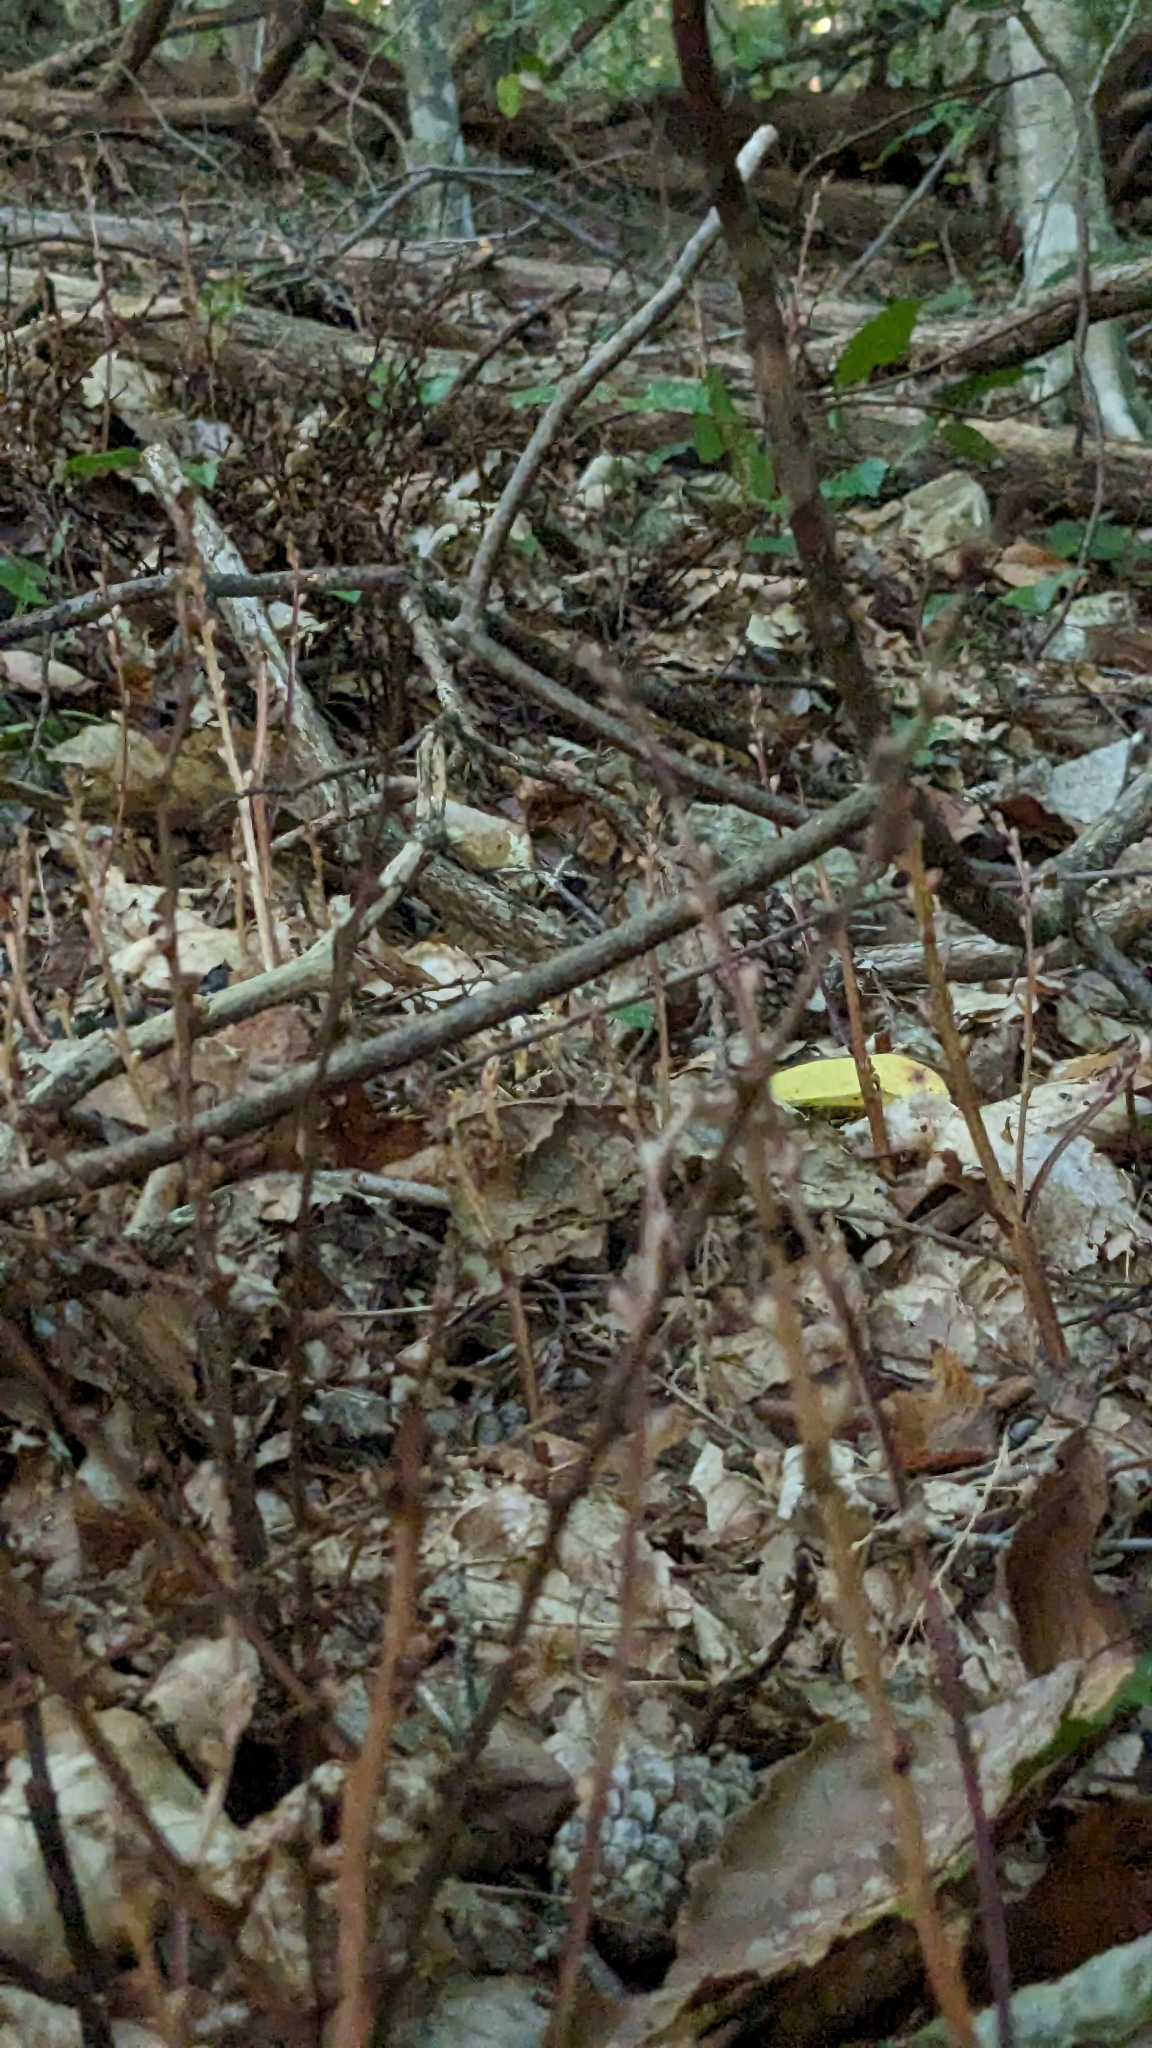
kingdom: Plantae
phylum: Tracheophyta
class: Magnoliopsida
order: Lamiales
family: Orobanchaceae
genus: Epifagus
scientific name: Epifagus virginiana
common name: Beechdrops
